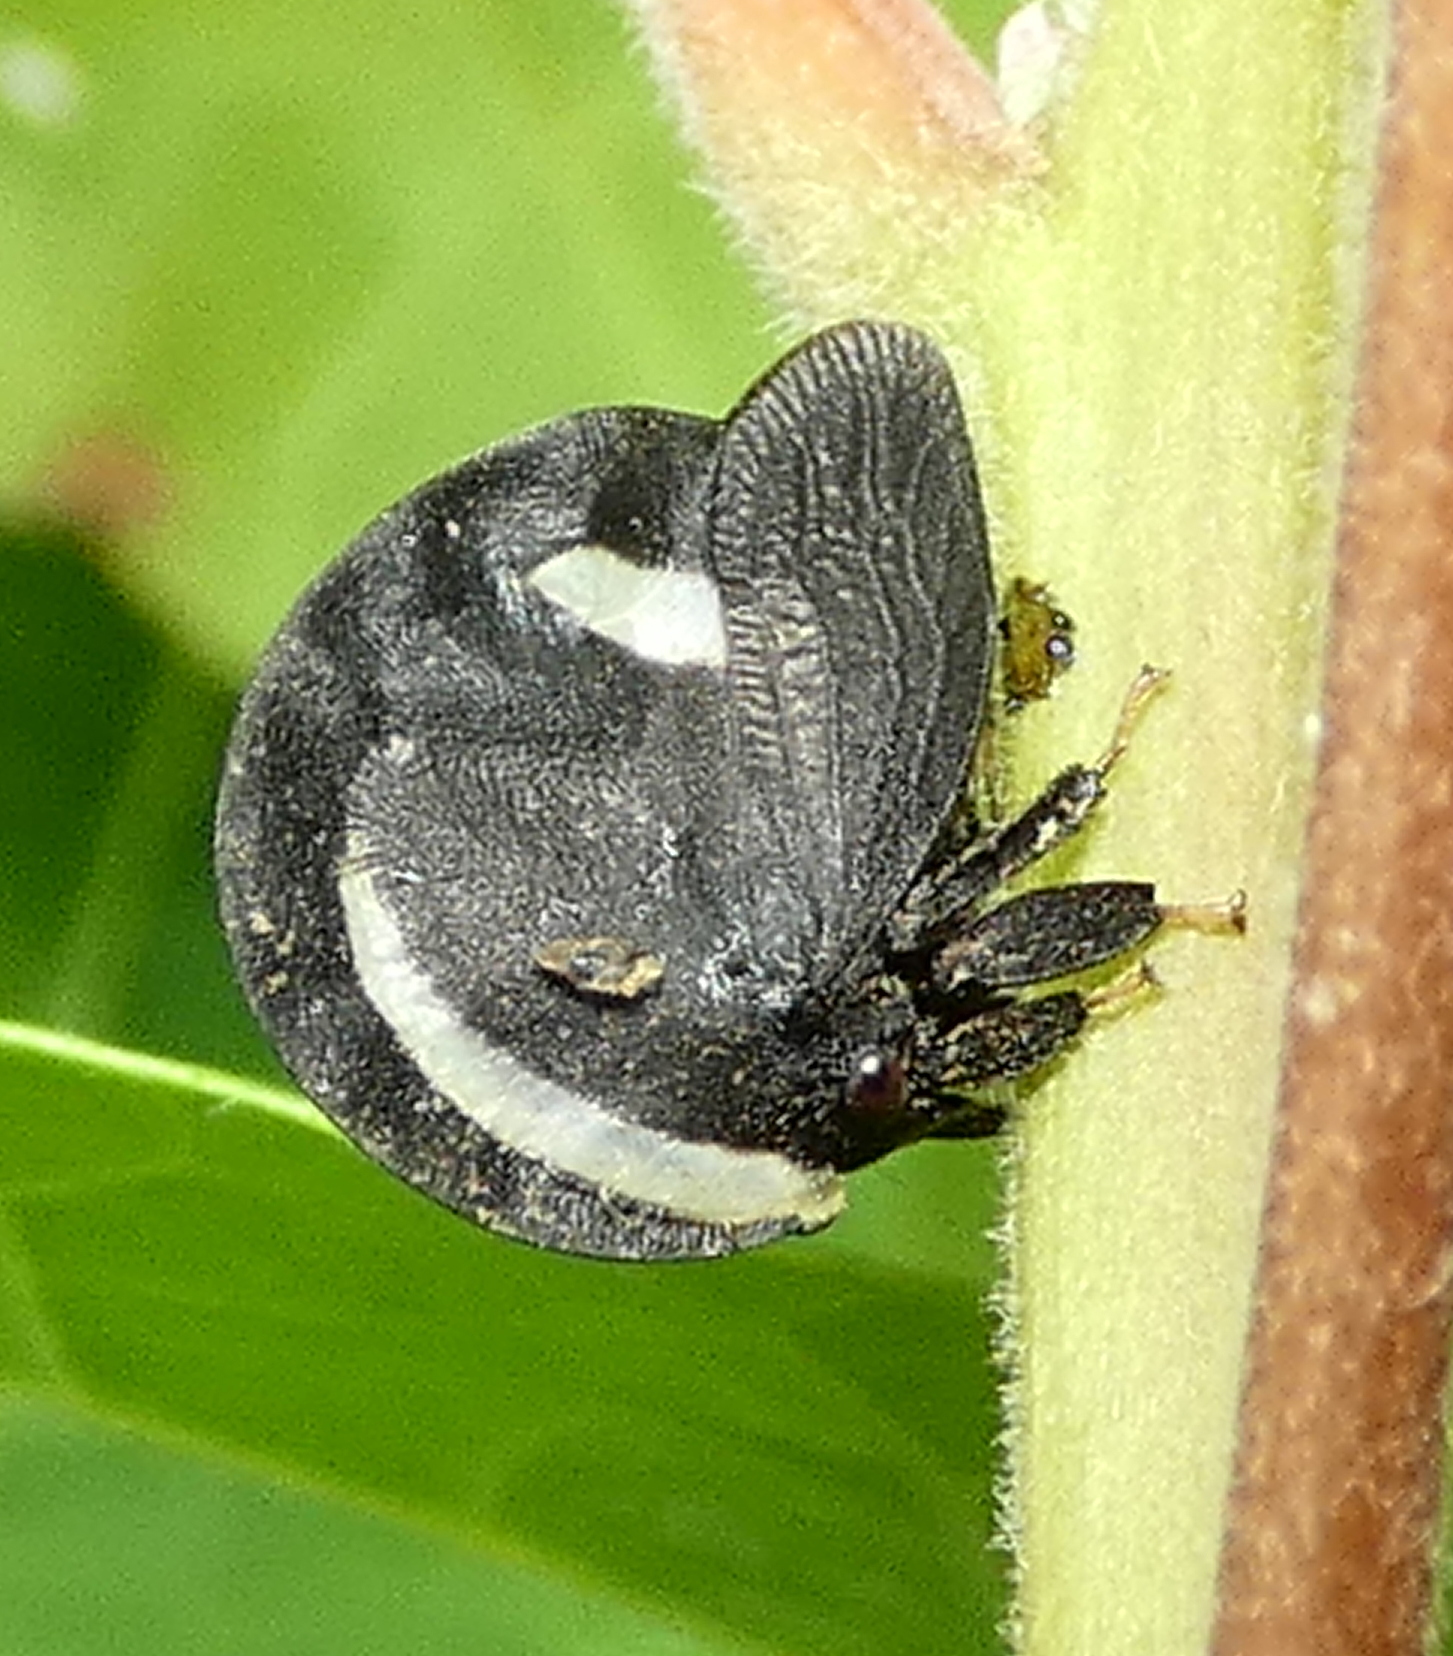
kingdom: Animalia
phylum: Arthropoda
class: Insecta
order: Hemiptera
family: Membracidae
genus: Membracis
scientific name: Membracis
